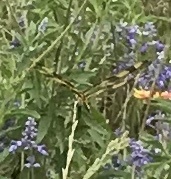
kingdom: Animalia
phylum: Arthropoda
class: Insecta
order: Odonata
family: Libellulidae
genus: Celithemis
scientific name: Celithemis eponina
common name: Halloween pennant
